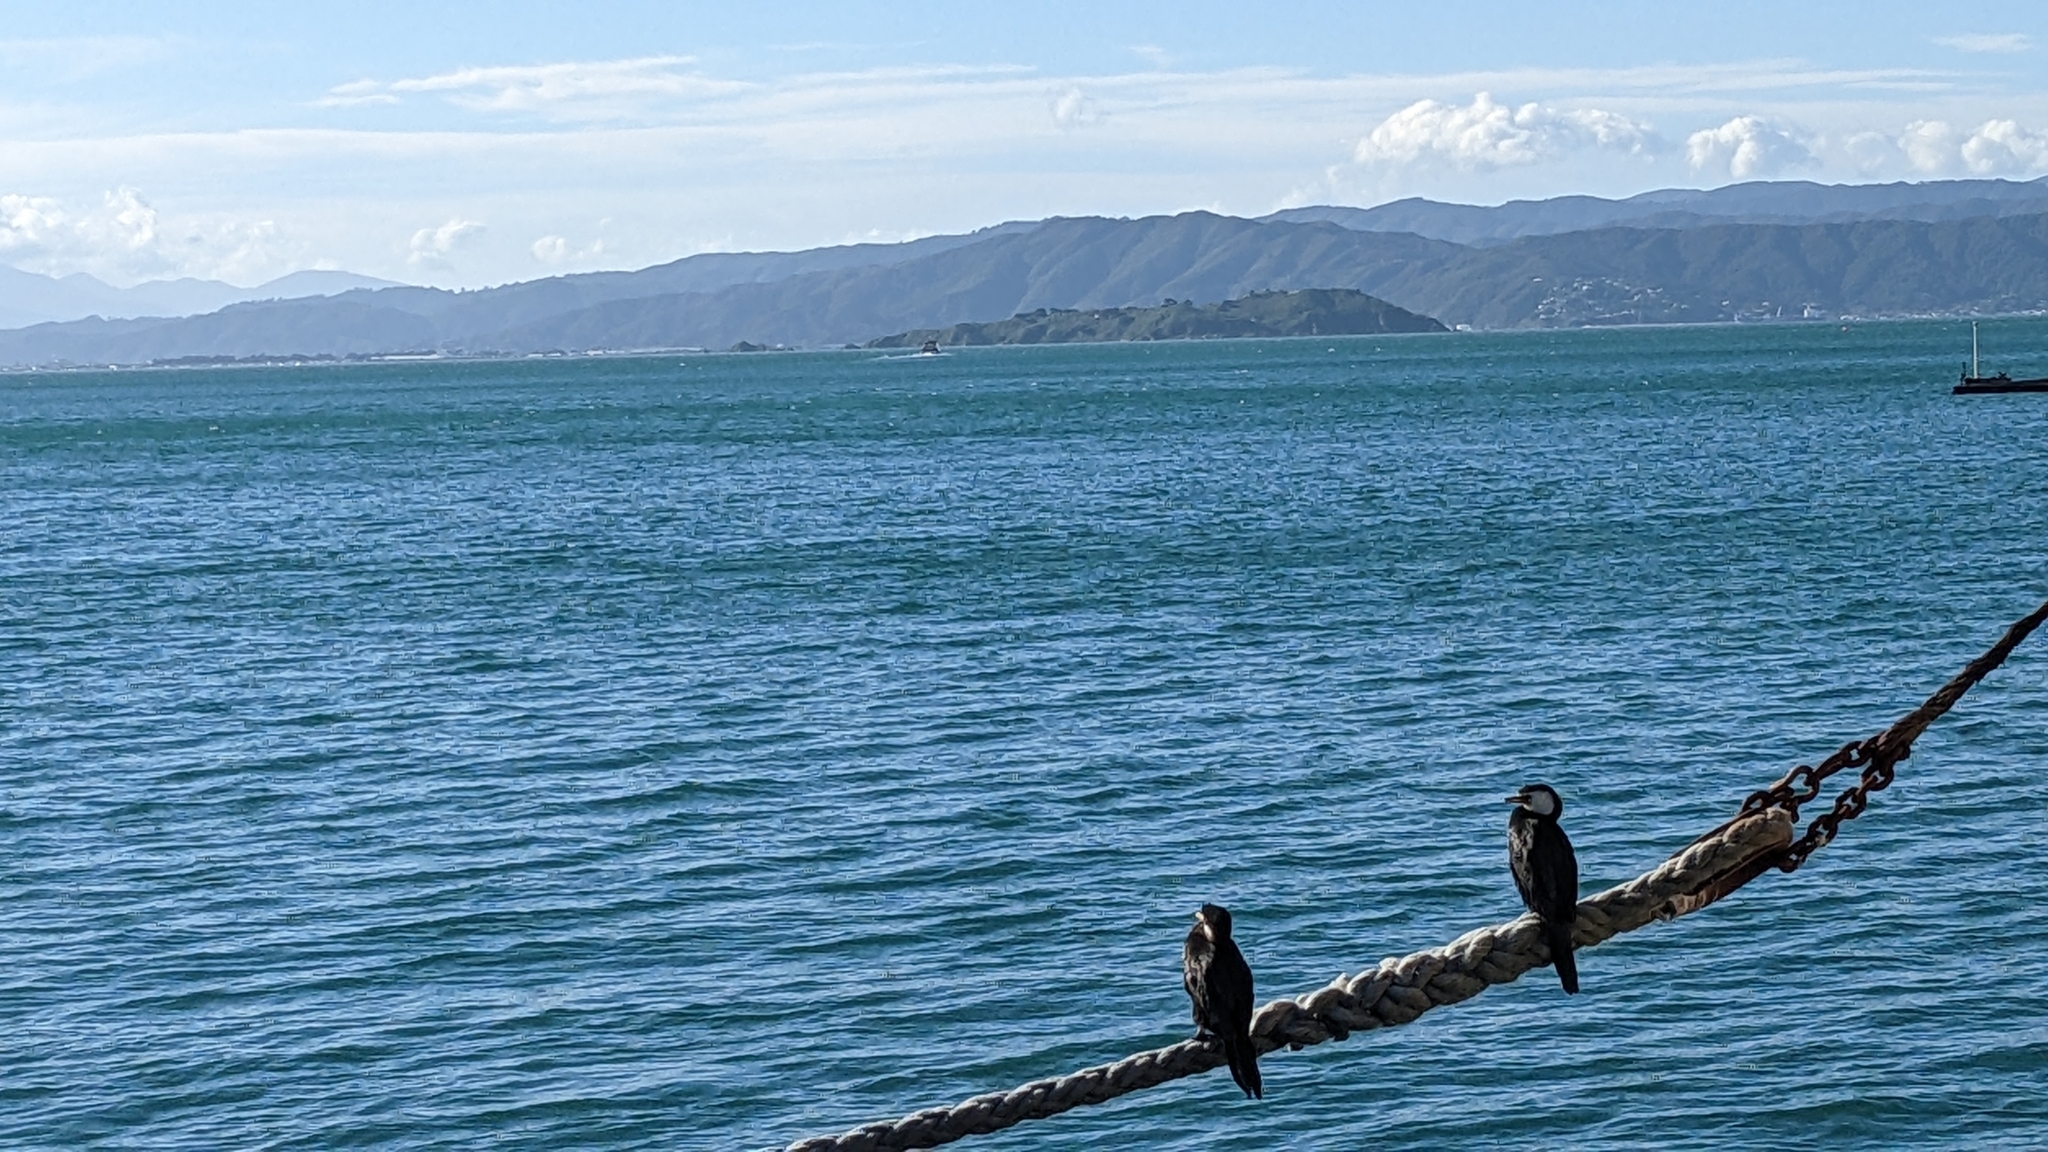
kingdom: Animalia
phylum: Chordata
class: Aves
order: Suliformes
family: Phalacrocoracidae
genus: Microcarbo
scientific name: Microcarbo melanoleucos
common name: Little pied cormorant
